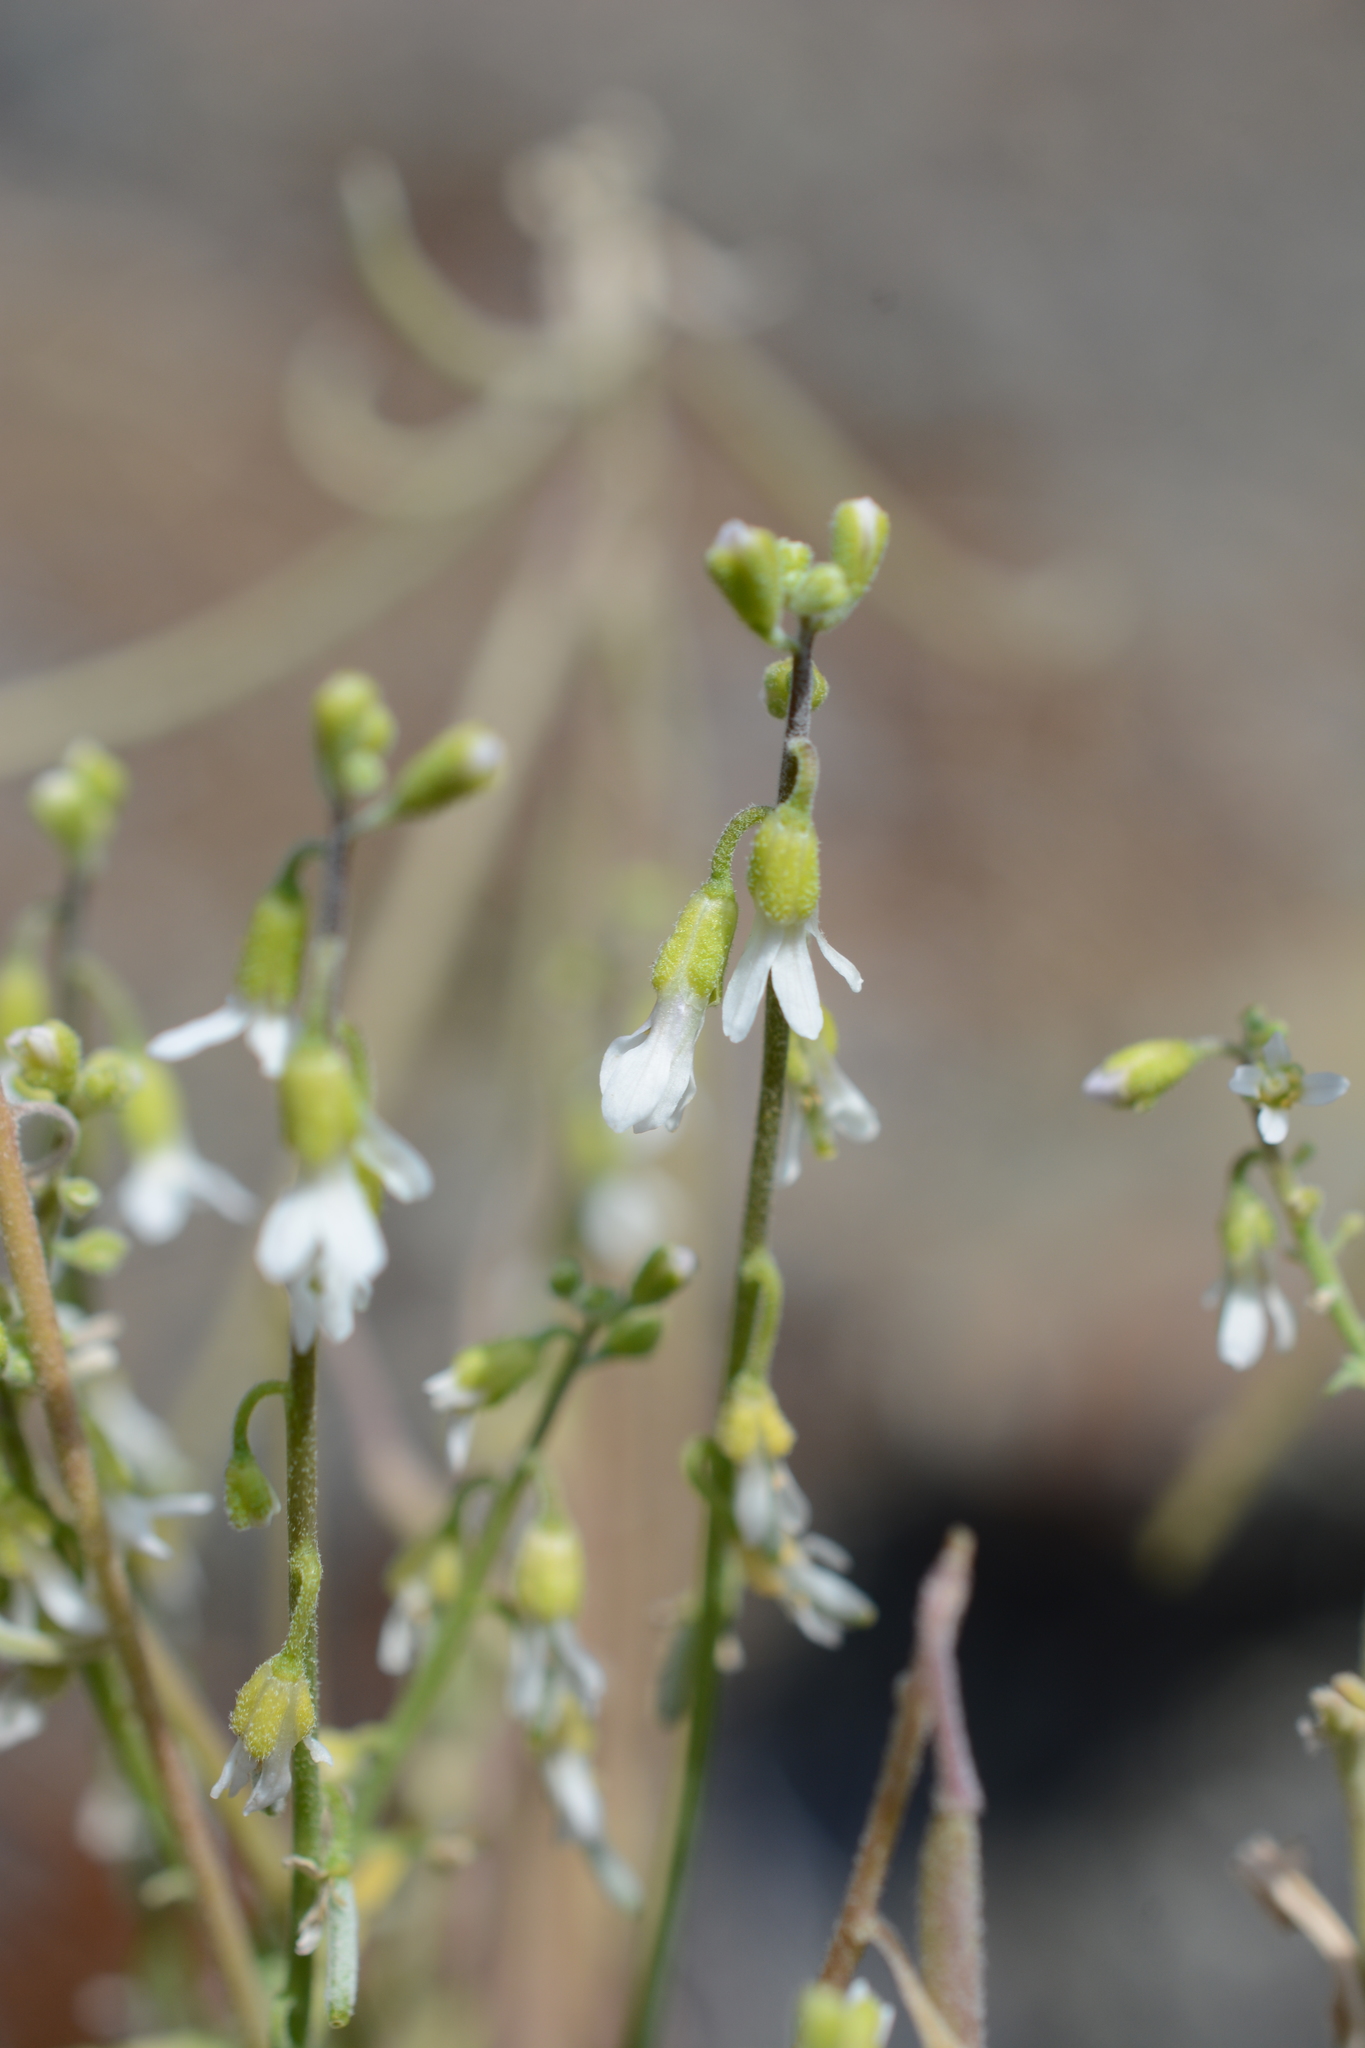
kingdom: Plantae
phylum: Tracheophyta
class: Magnoliopsida
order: Brassicales
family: Brassicaceae
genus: Boechera
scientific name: Boechera retrofracta
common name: Dangling suncress
